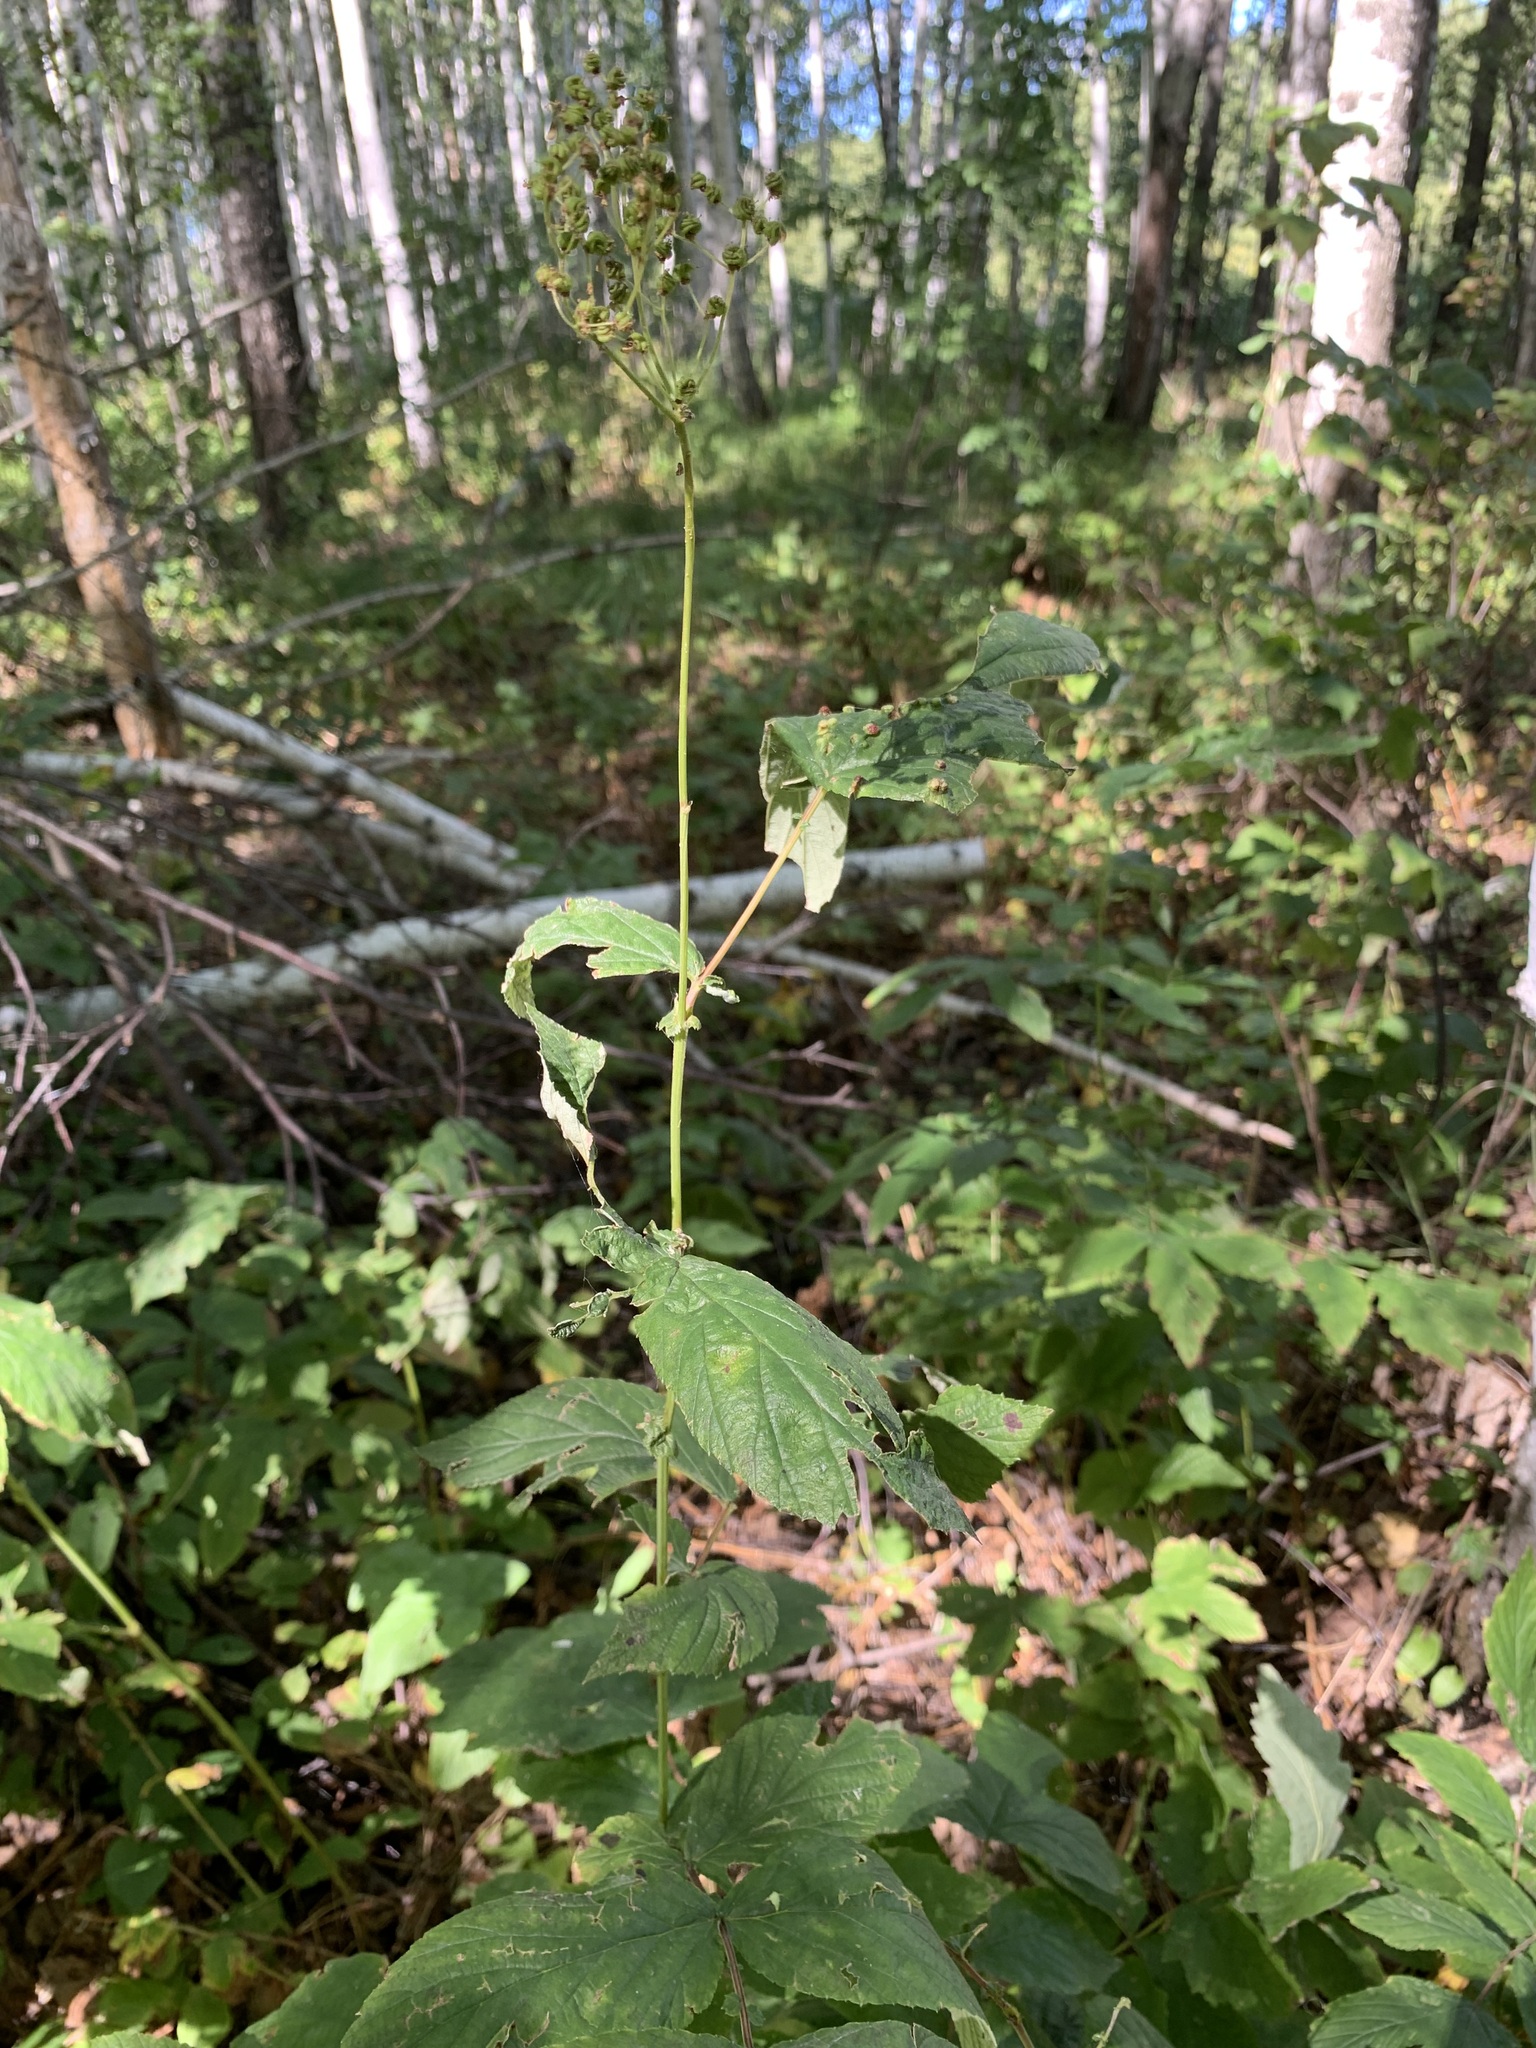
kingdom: Plantae
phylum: Tracheophyta
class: Magnoliopsida
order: Rosales
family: Rosaceae
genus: Filipendula
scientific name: Filipendula ulmaria
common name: Meadowsweet
